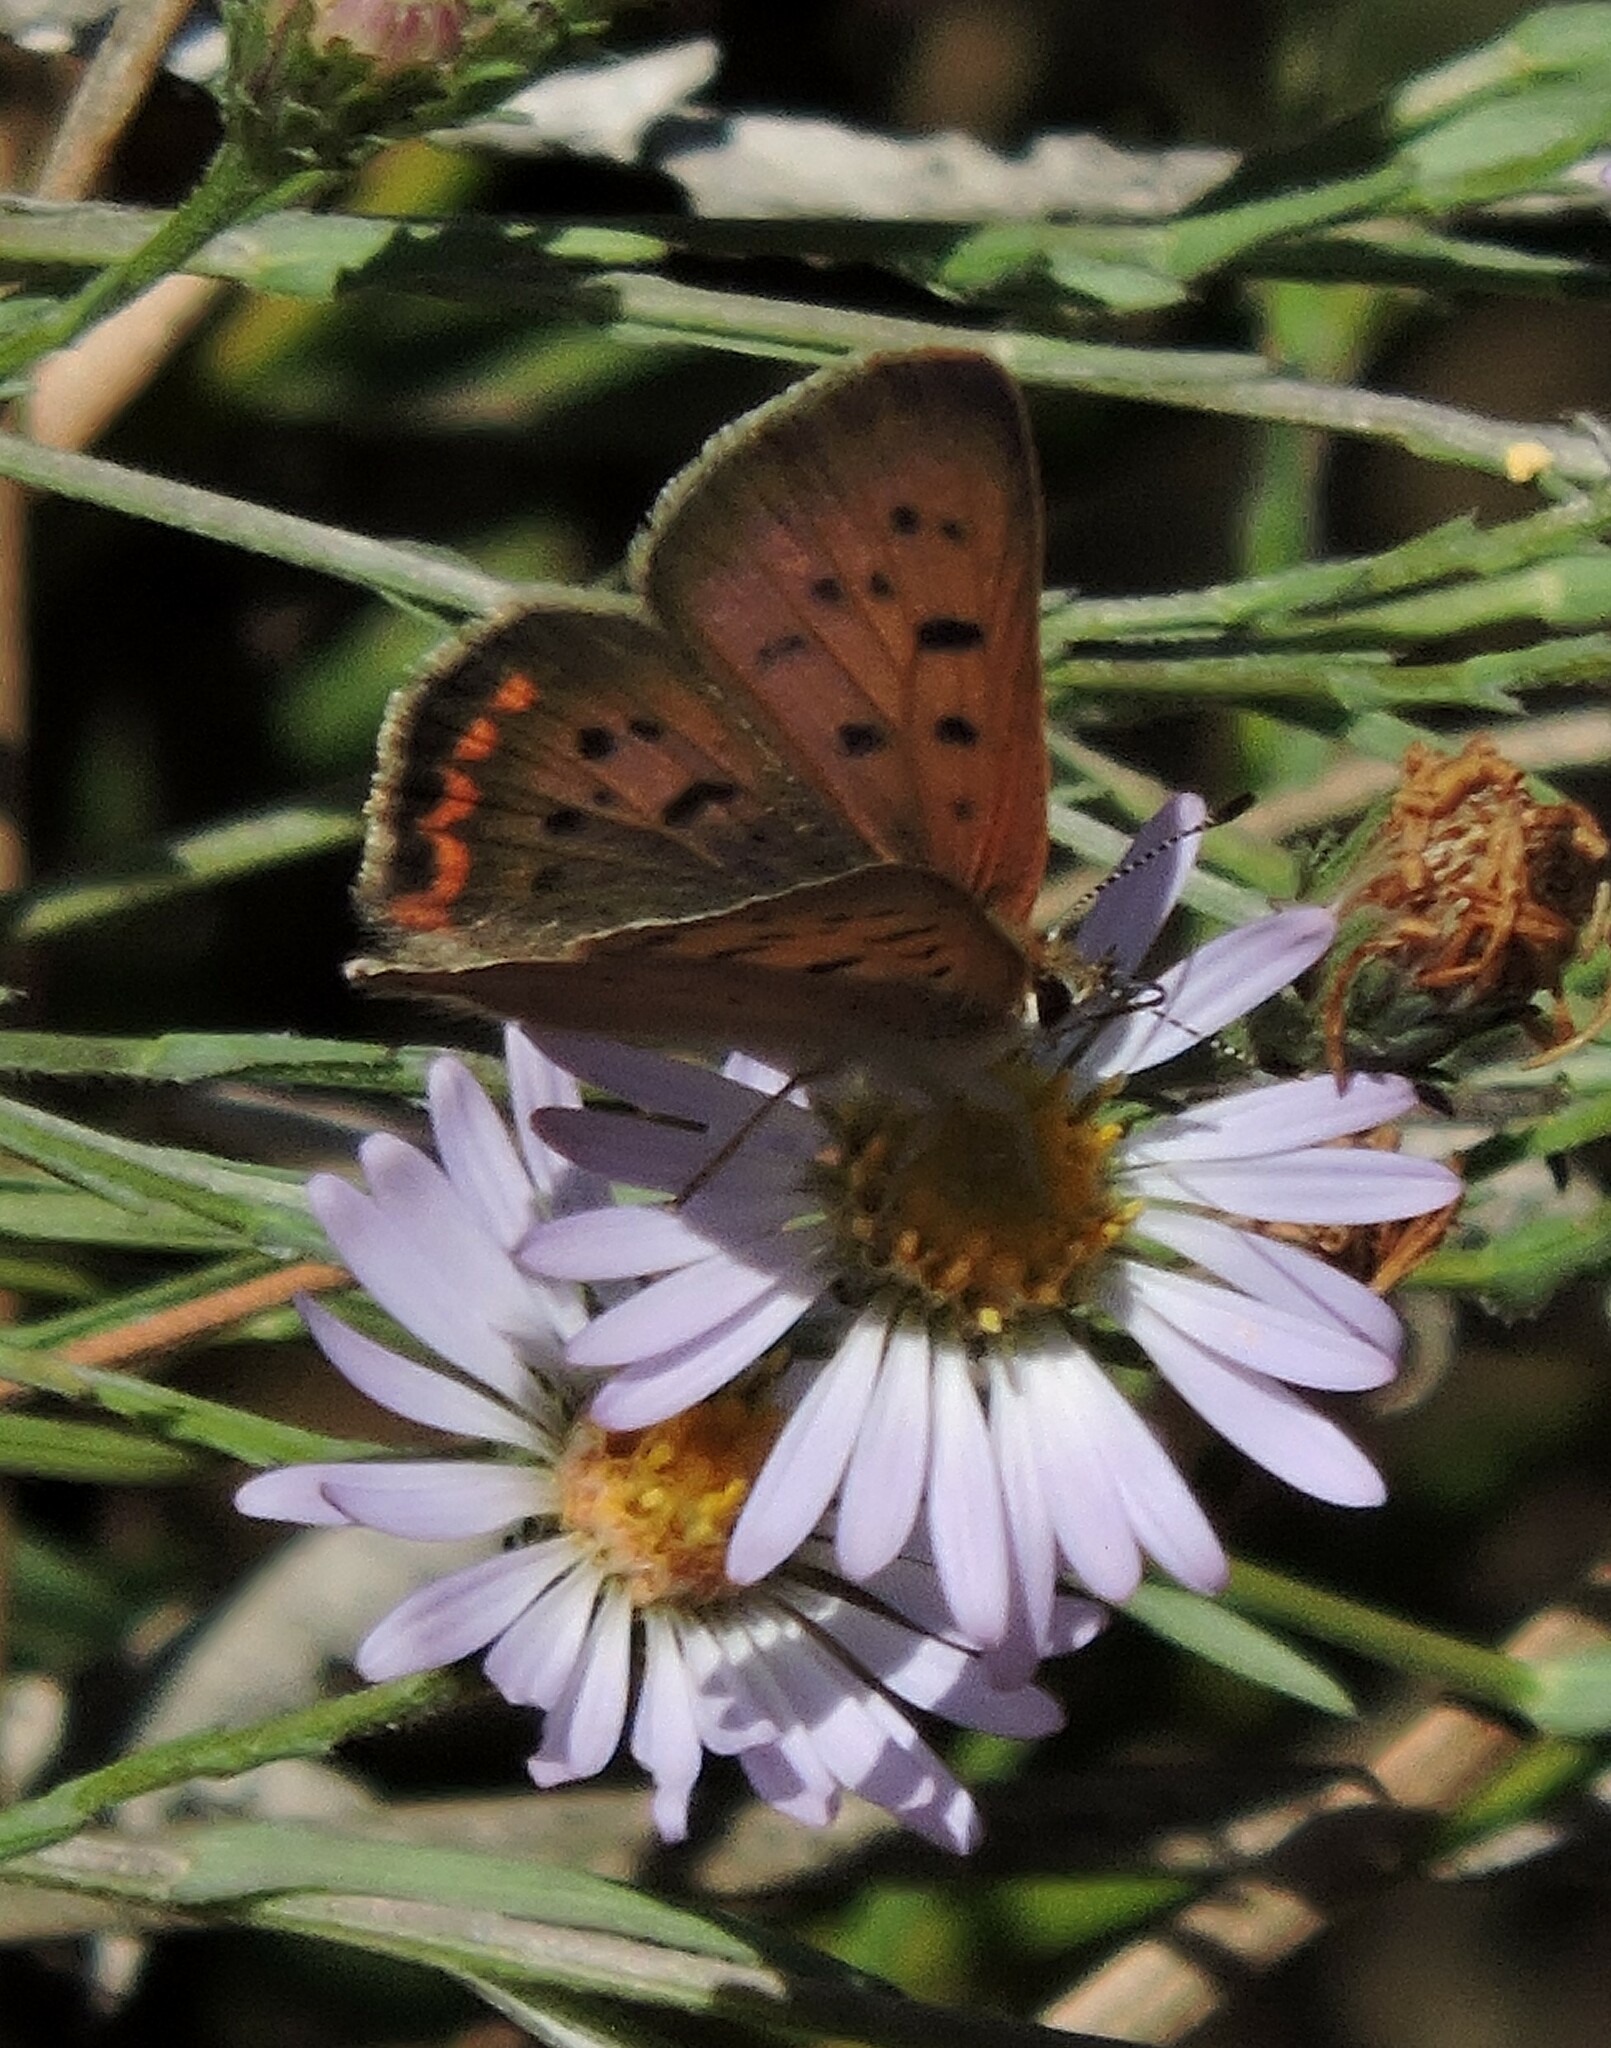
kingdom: Animalia
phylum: Arthropoda
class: Insecta
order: Lepidoptera
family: Lycaenidae
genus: Tharsalea
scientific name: Tharsalea helloides
